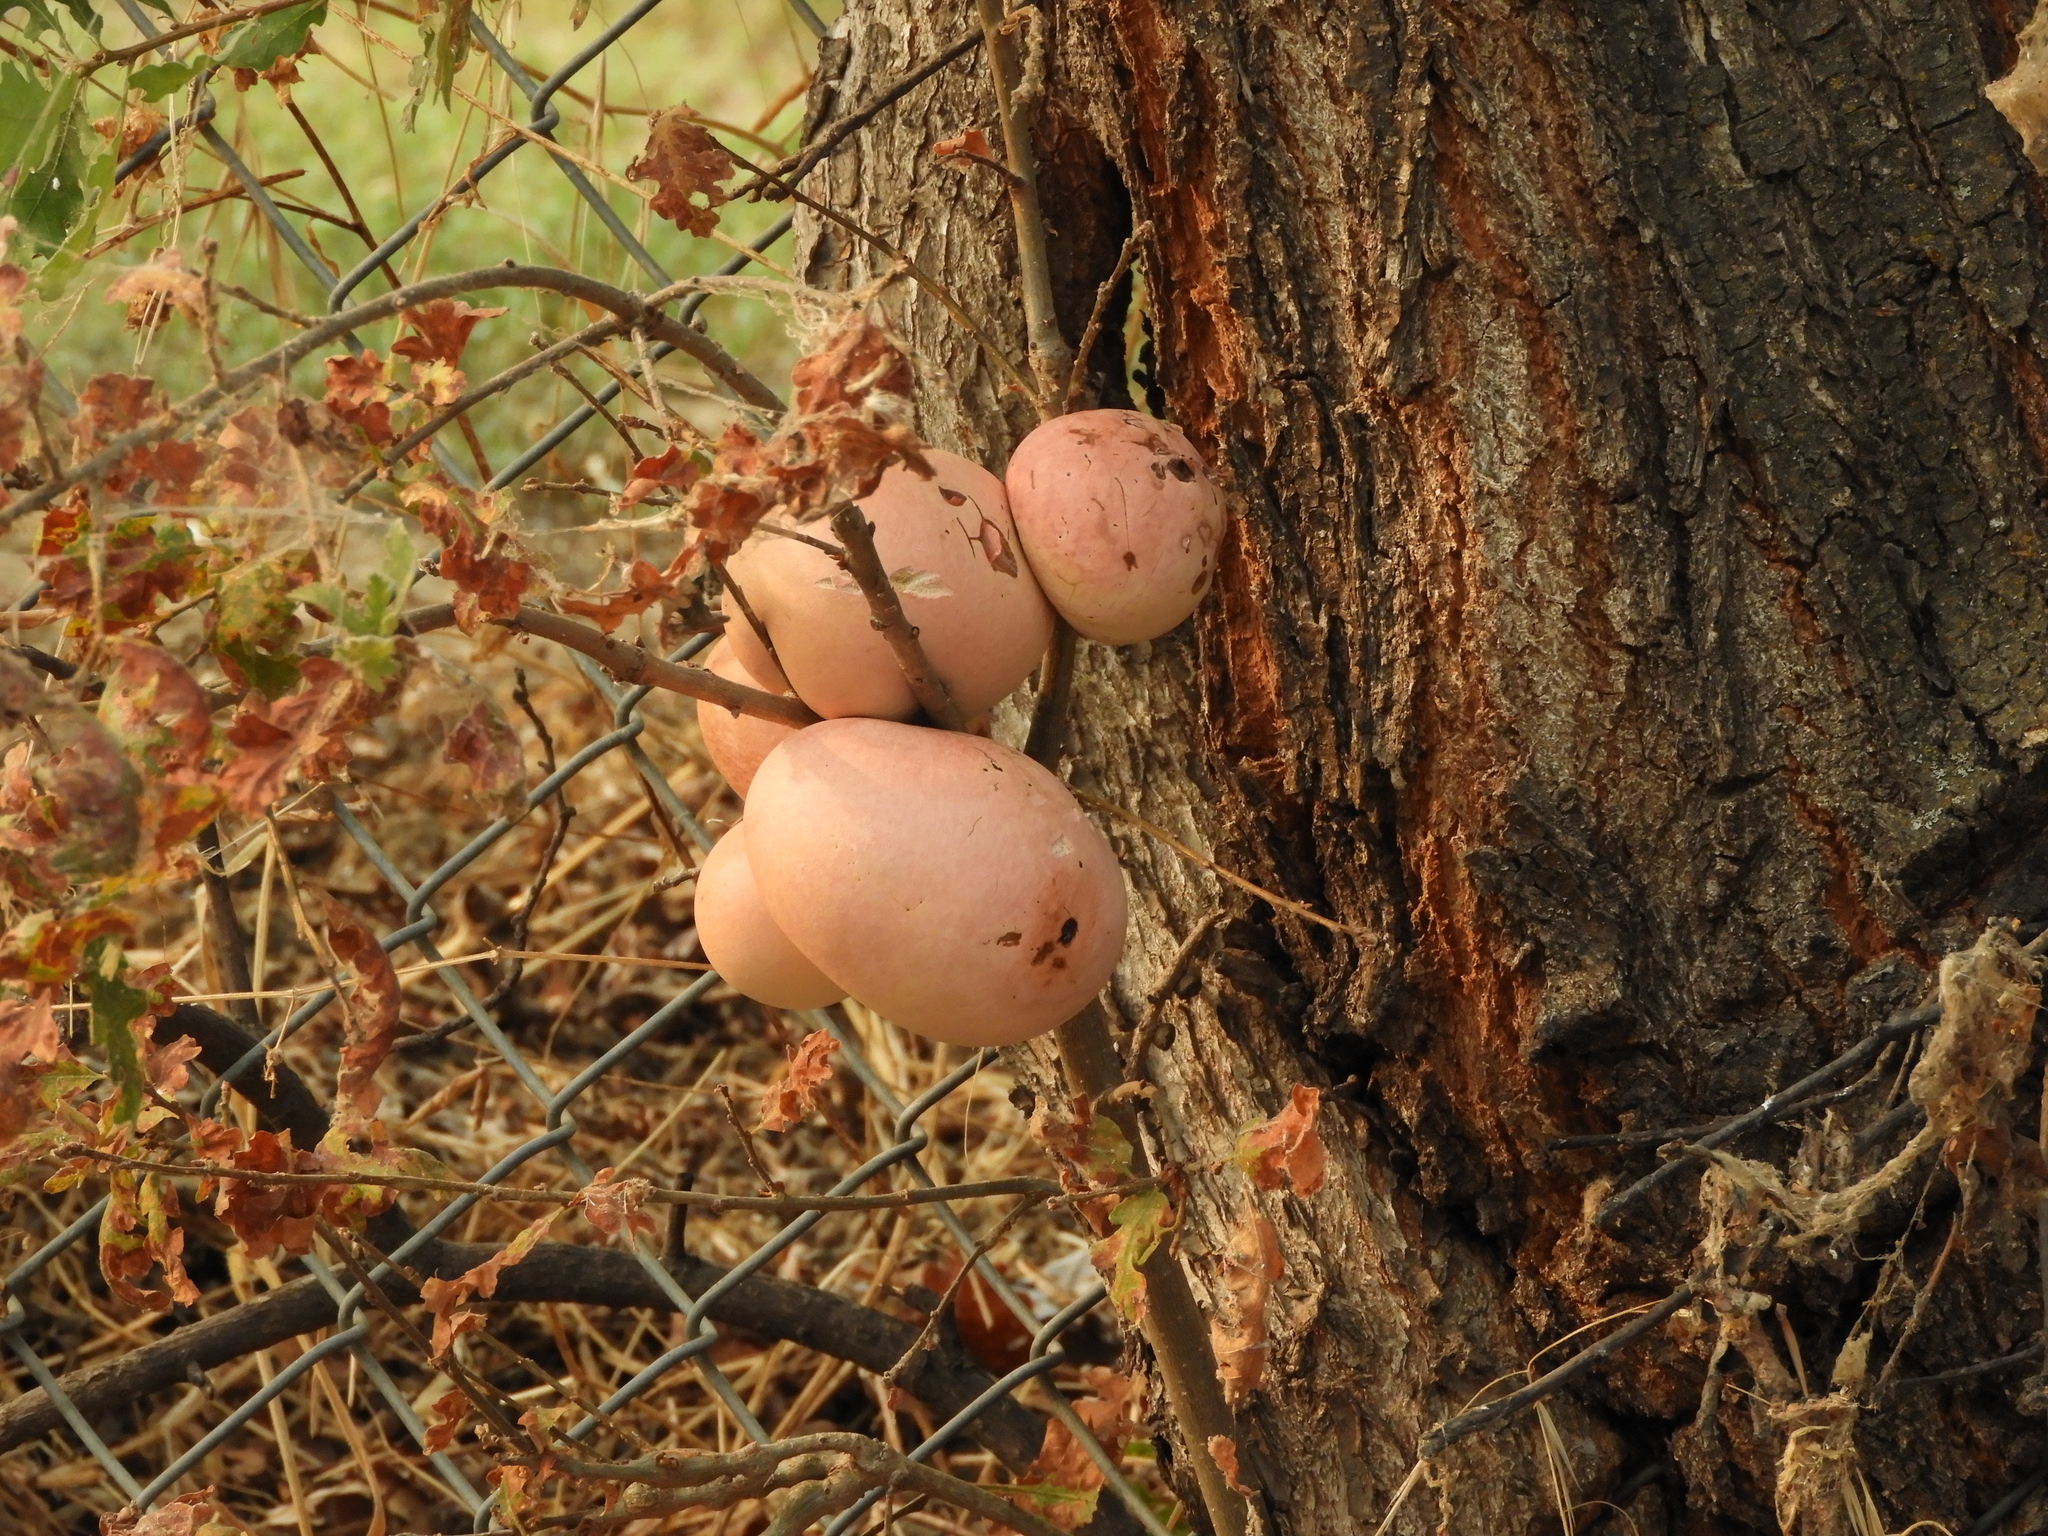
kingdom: Animalia
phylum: Arthropoda
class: Insecta
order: Hymenoptera
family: Cynipidae
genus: Andricus
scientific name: Andricus quercuscalifornicus
